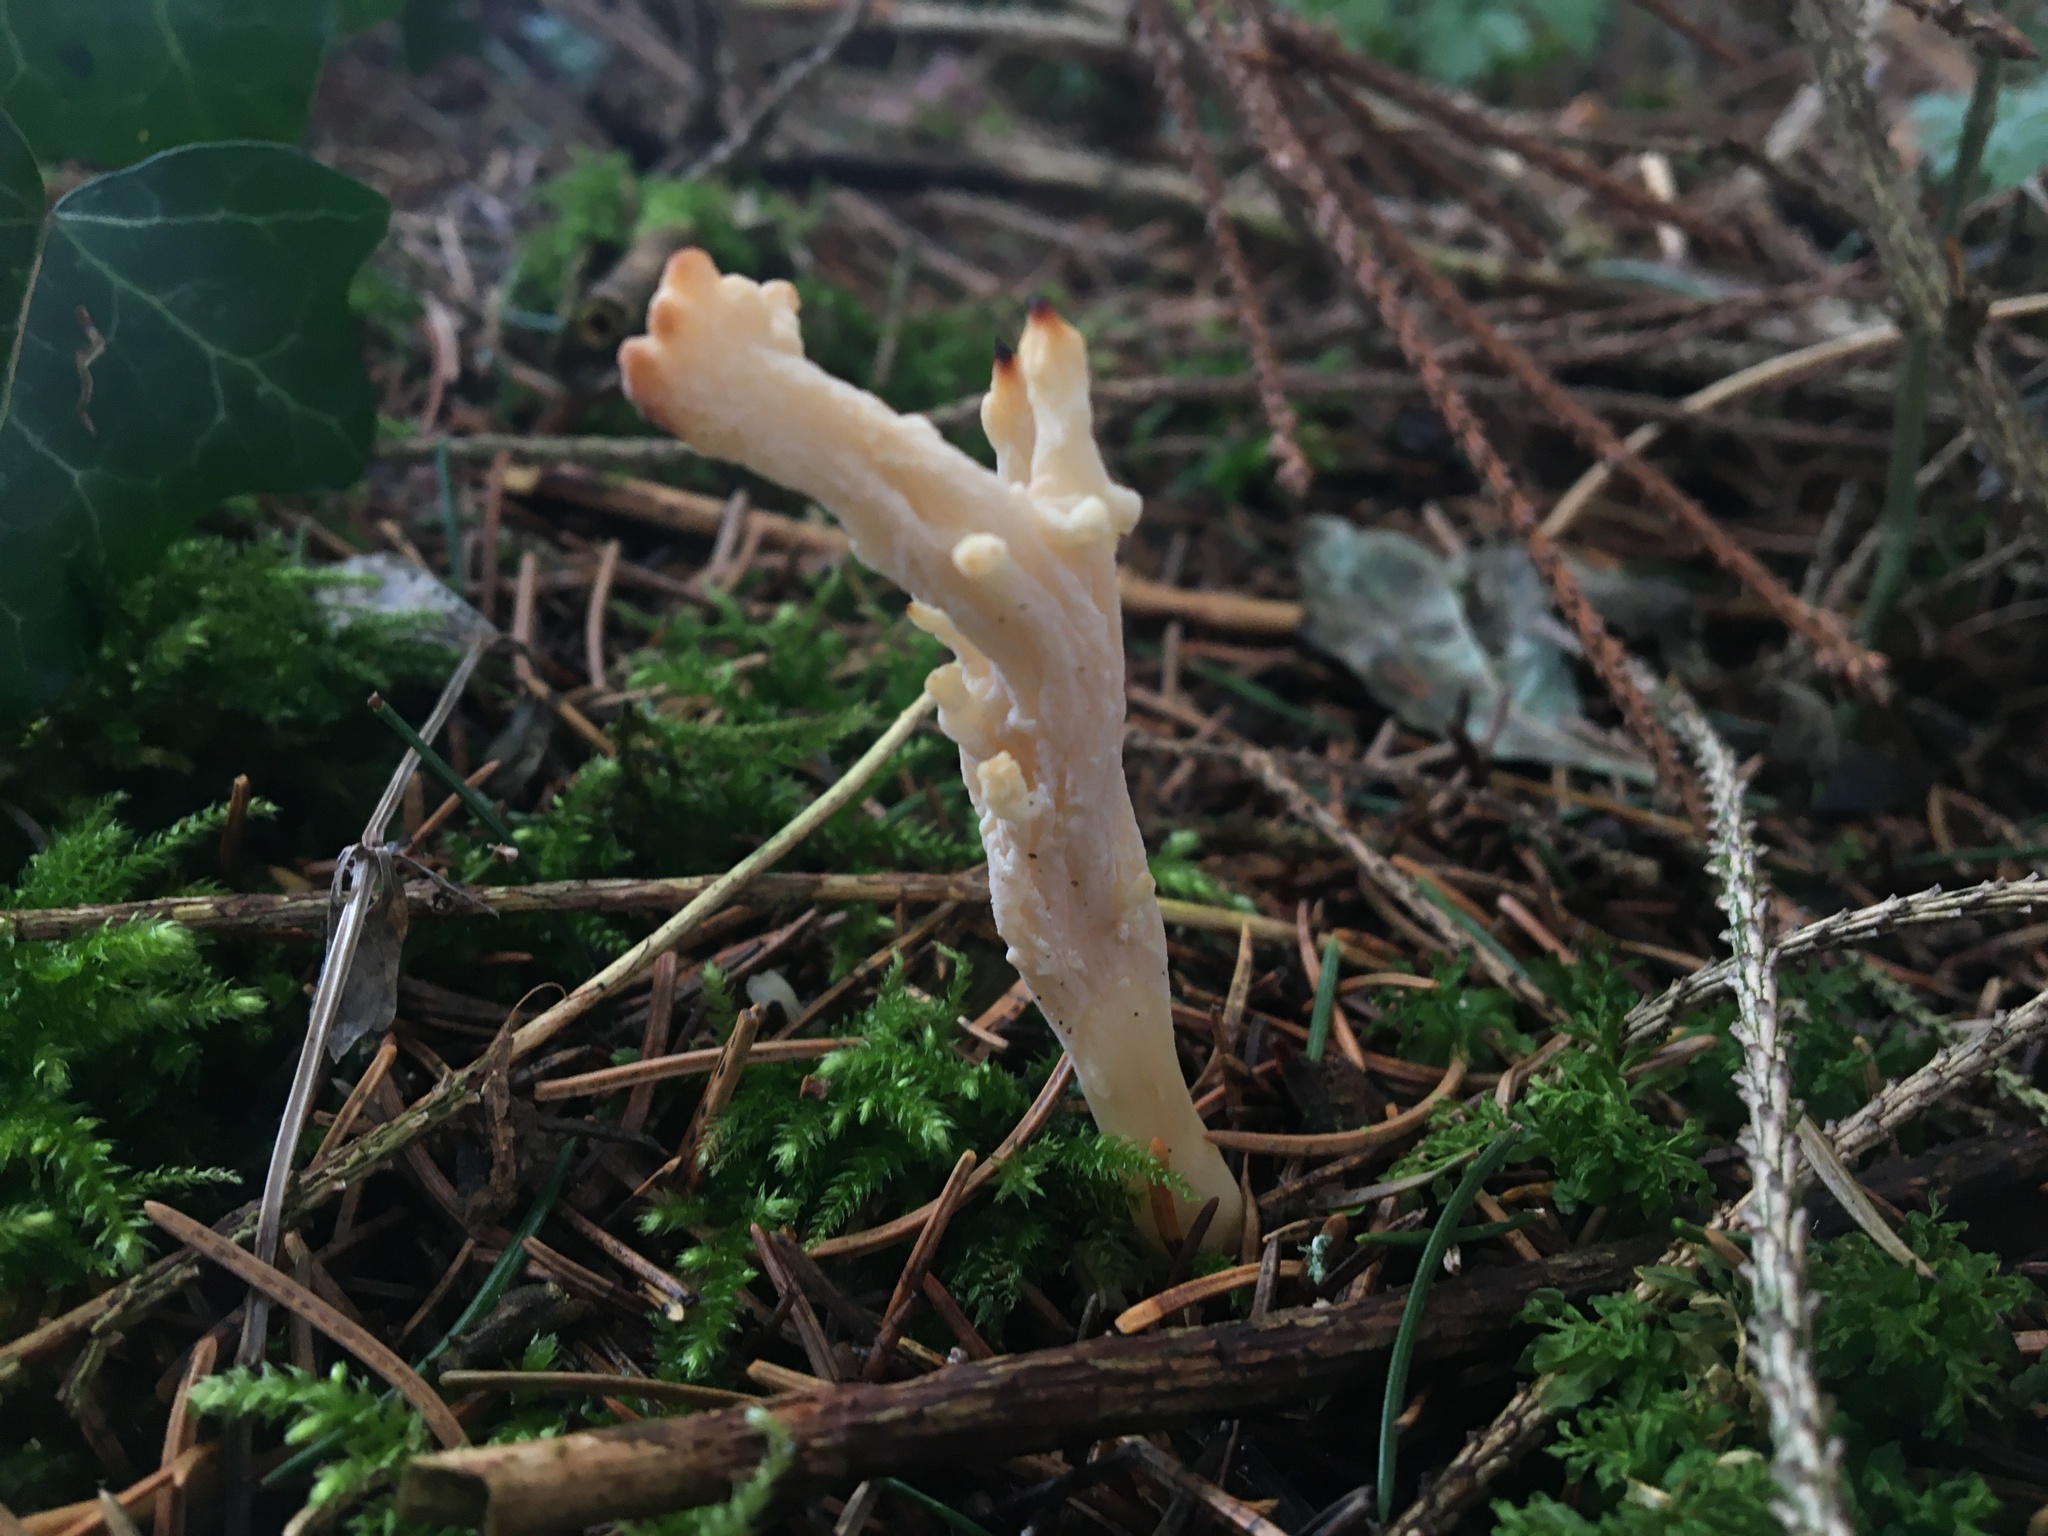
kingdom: Fungi
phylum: Basidiomycota
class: Agaricomycetes
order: Cantharellales
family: Hydnaceae
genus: Clavulina
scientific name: Clavulina rugosa
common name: Wrinkled club
